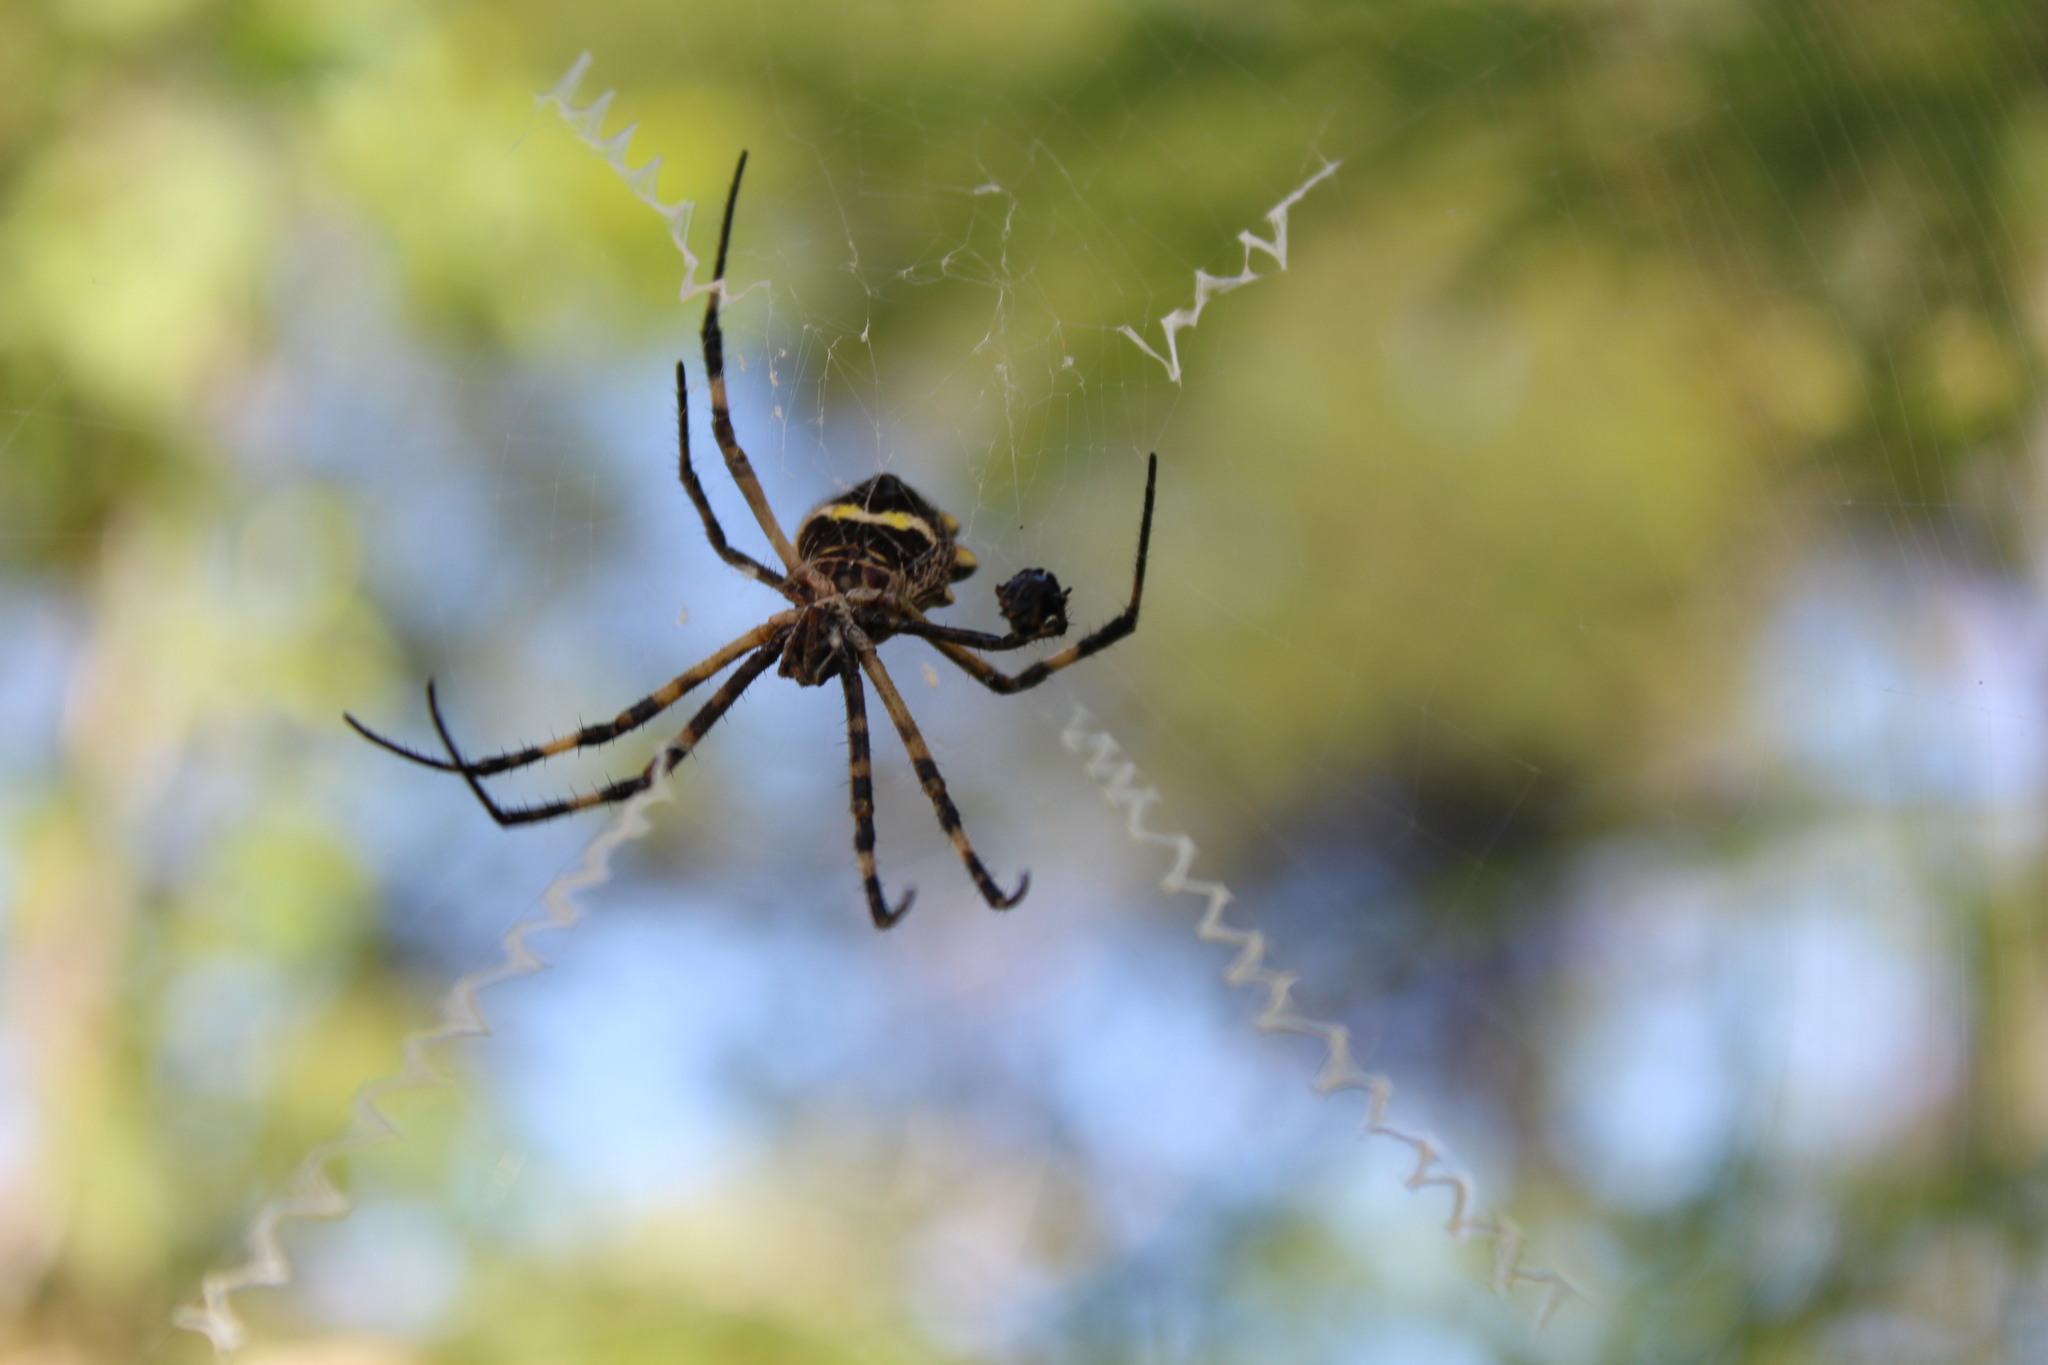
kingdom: Animalia
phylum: Arthropoda
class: Arachnida
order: Araneae
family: Araneidae
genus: Argiope
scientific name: Argiope argentata
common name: Orb weavers
